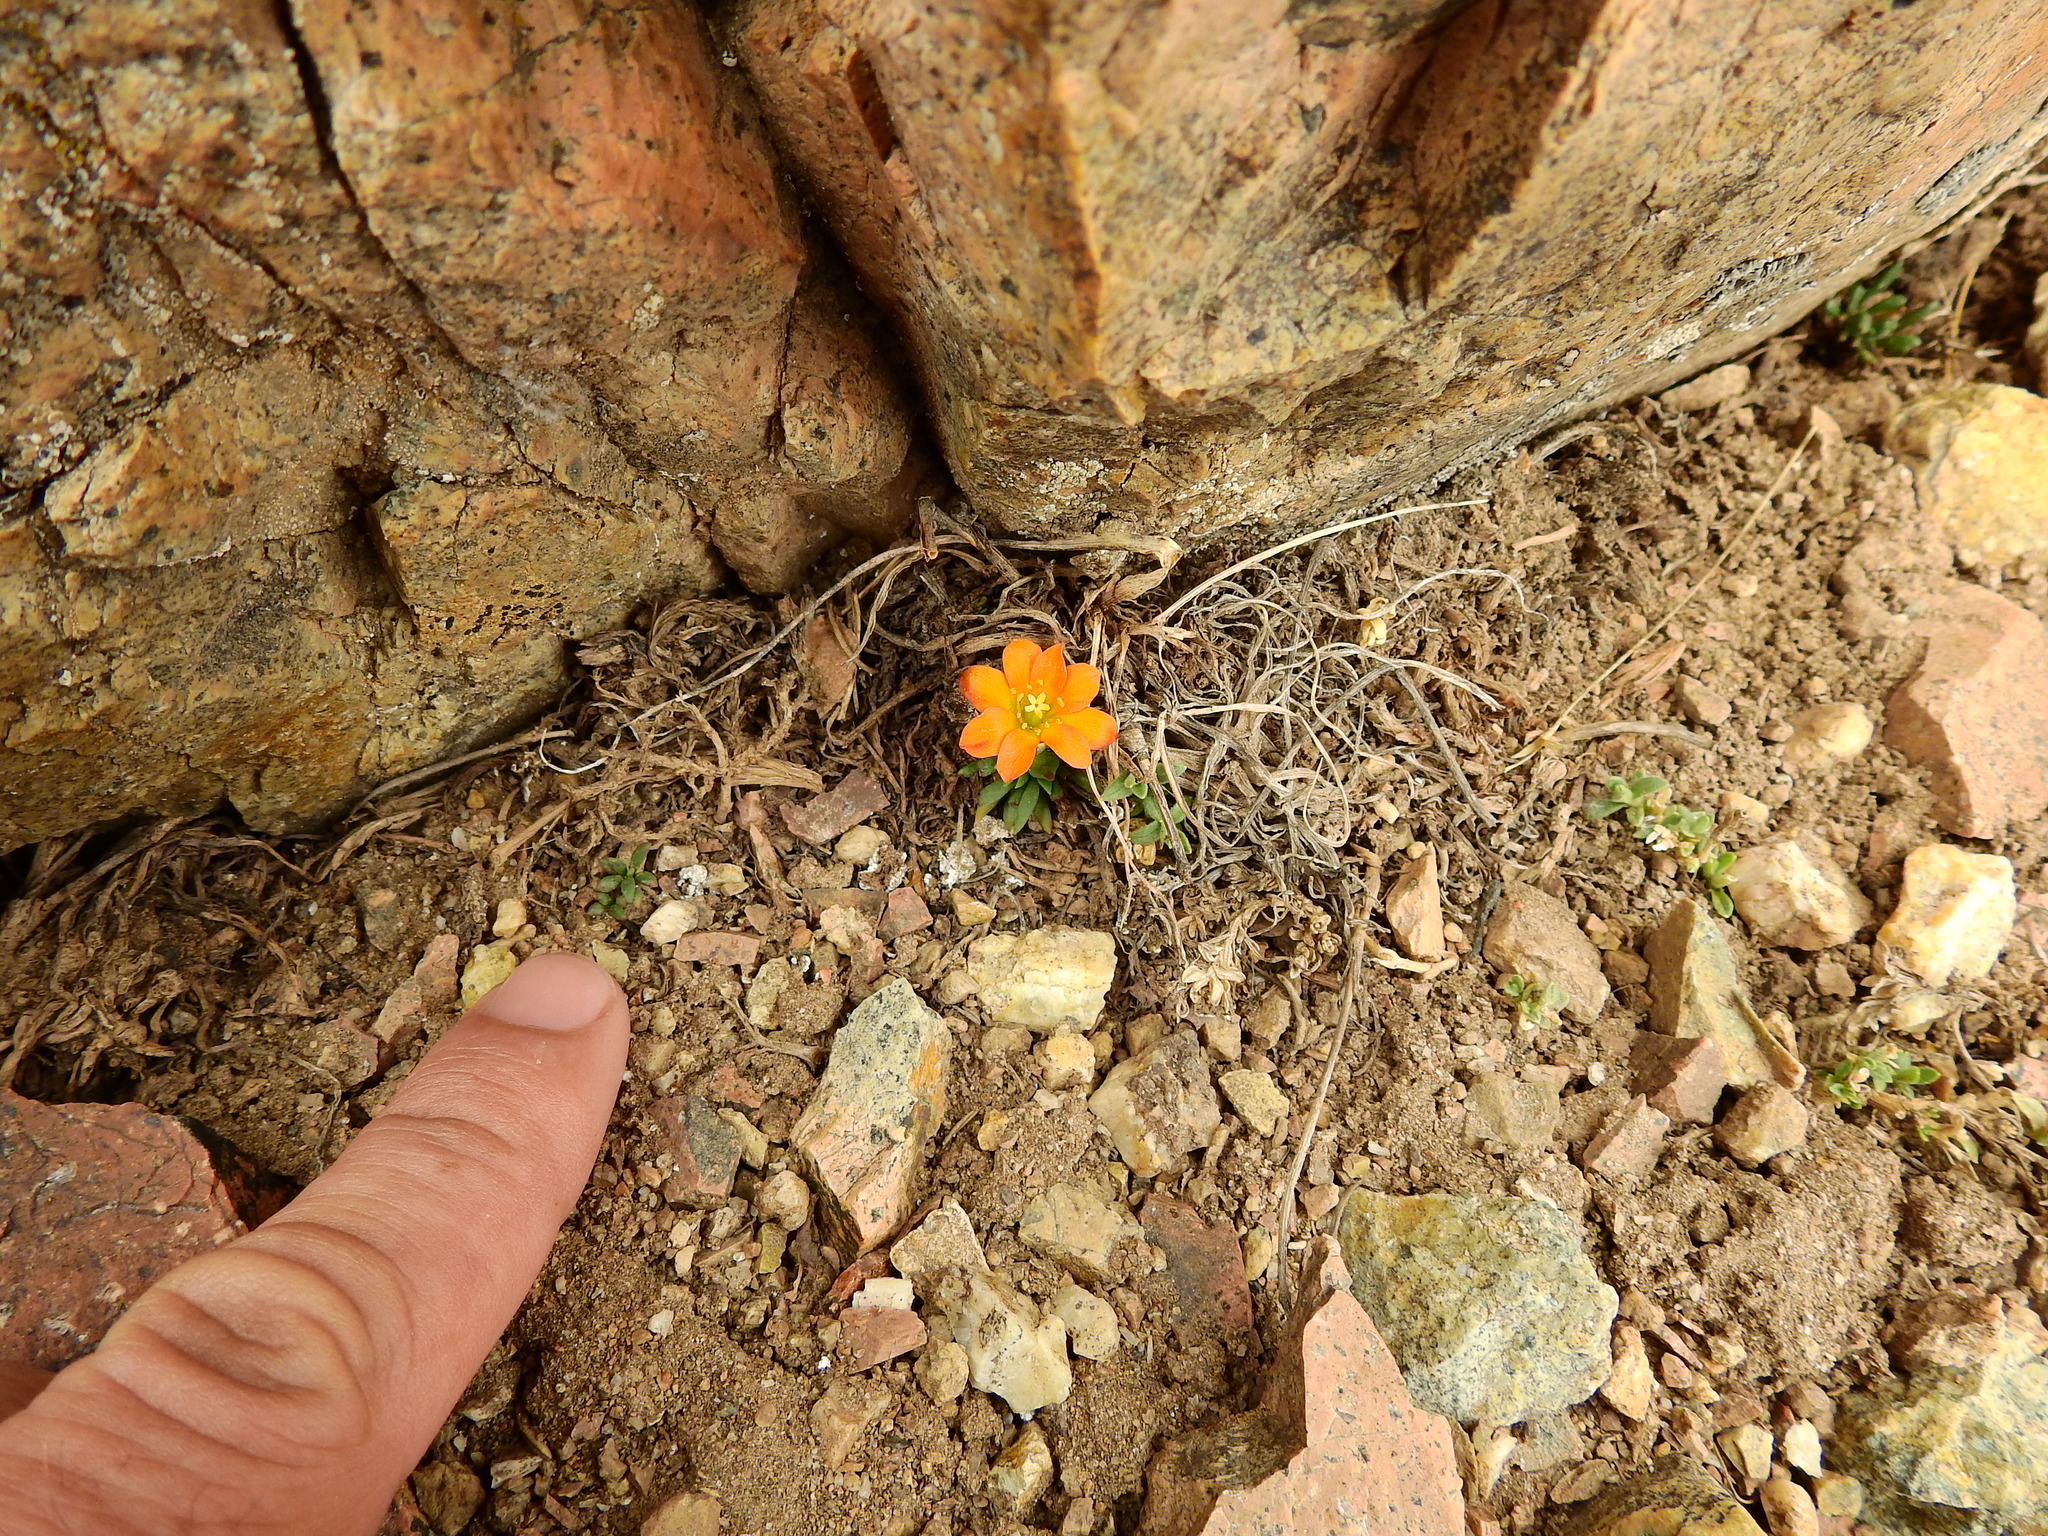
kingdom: Plantae
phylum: Tracheophyta
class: Magnoliopsida
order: Caryophyllales
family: Montiaceae
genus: Calandrinia
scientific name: Calandrinia caespitosa
